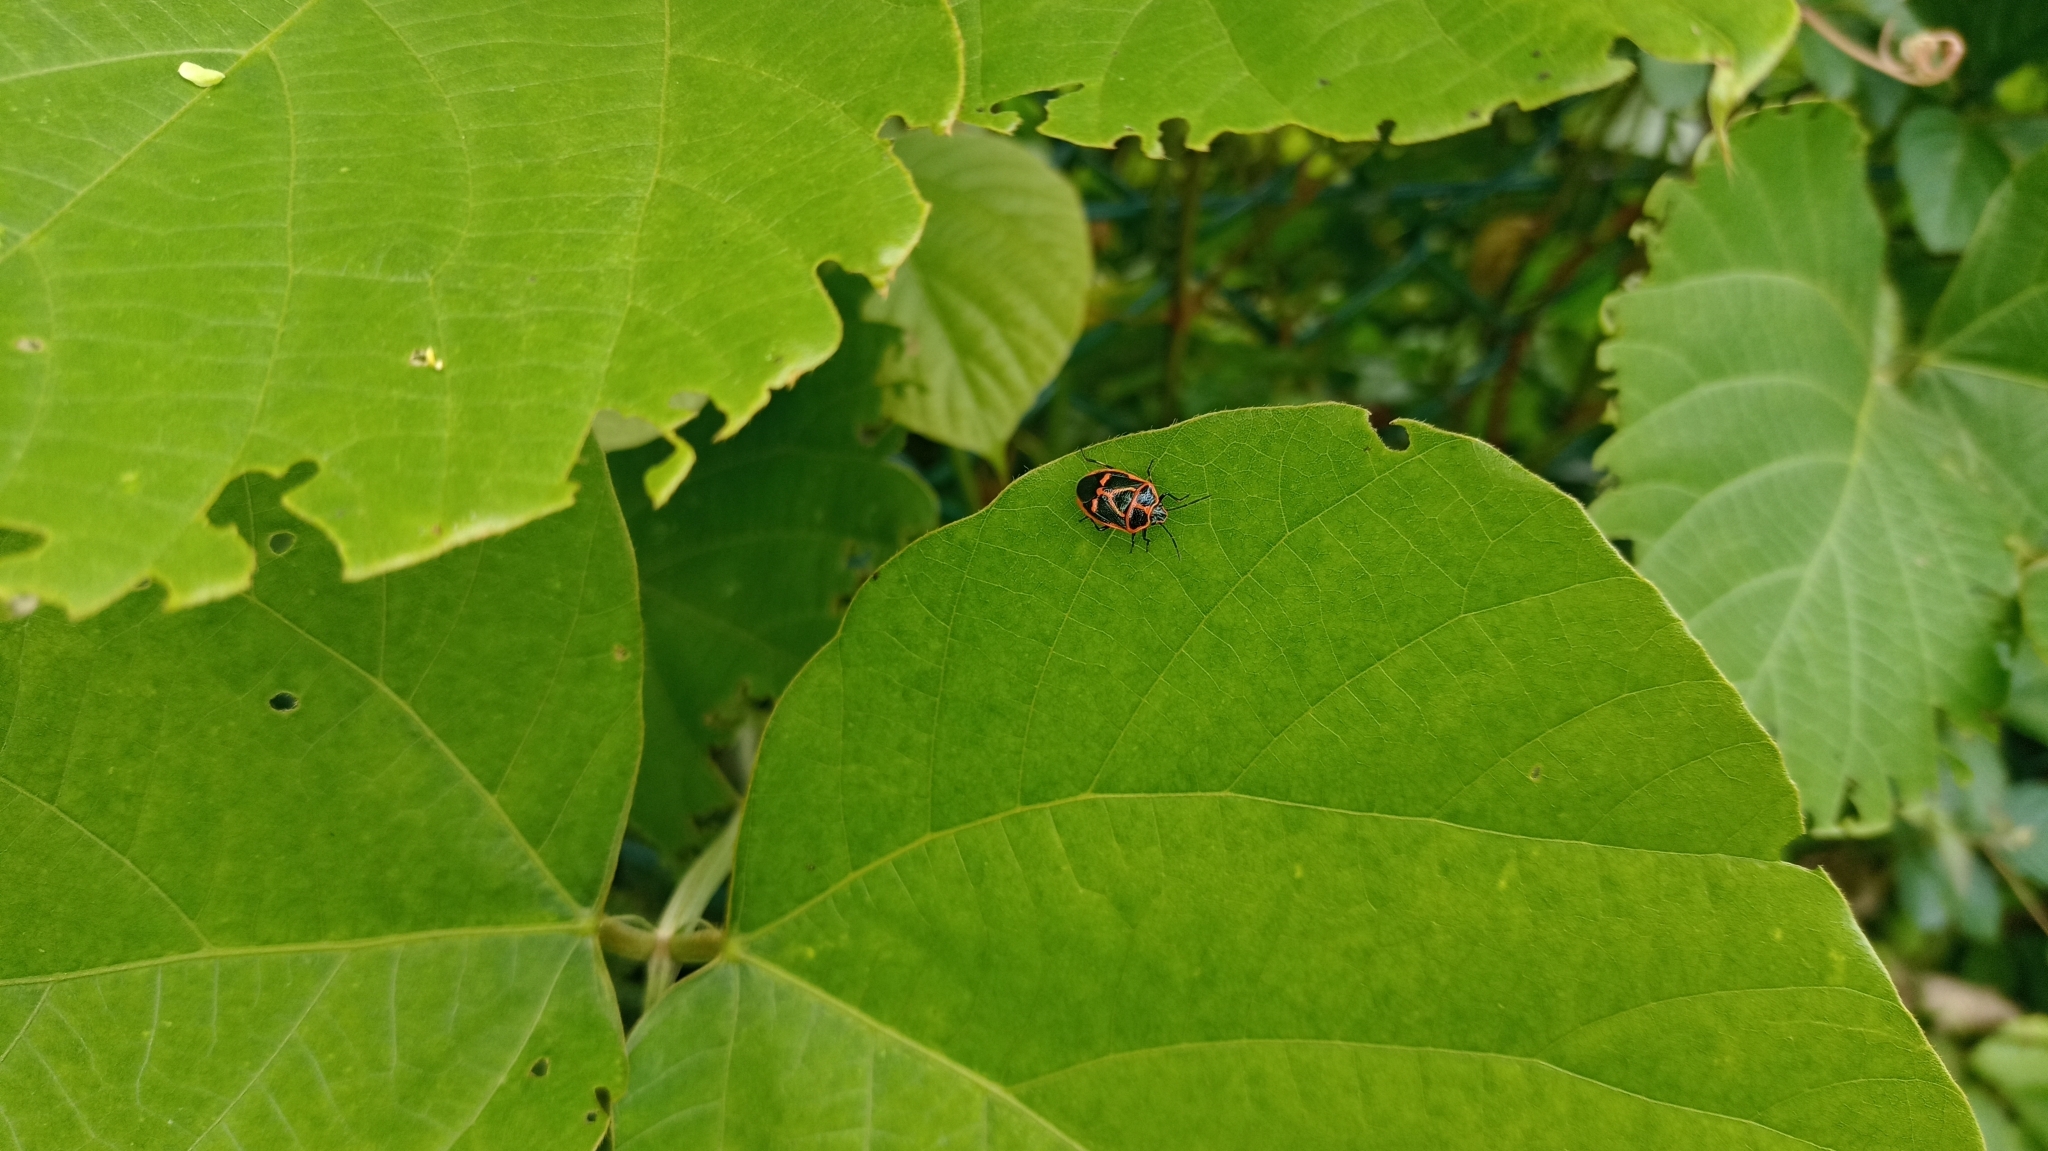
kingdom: Animalia
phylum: Arthropoda
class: Insecta
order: Hemiptera
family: Pentatomidae
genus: Eurydema
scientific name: Eurydema gebleri
